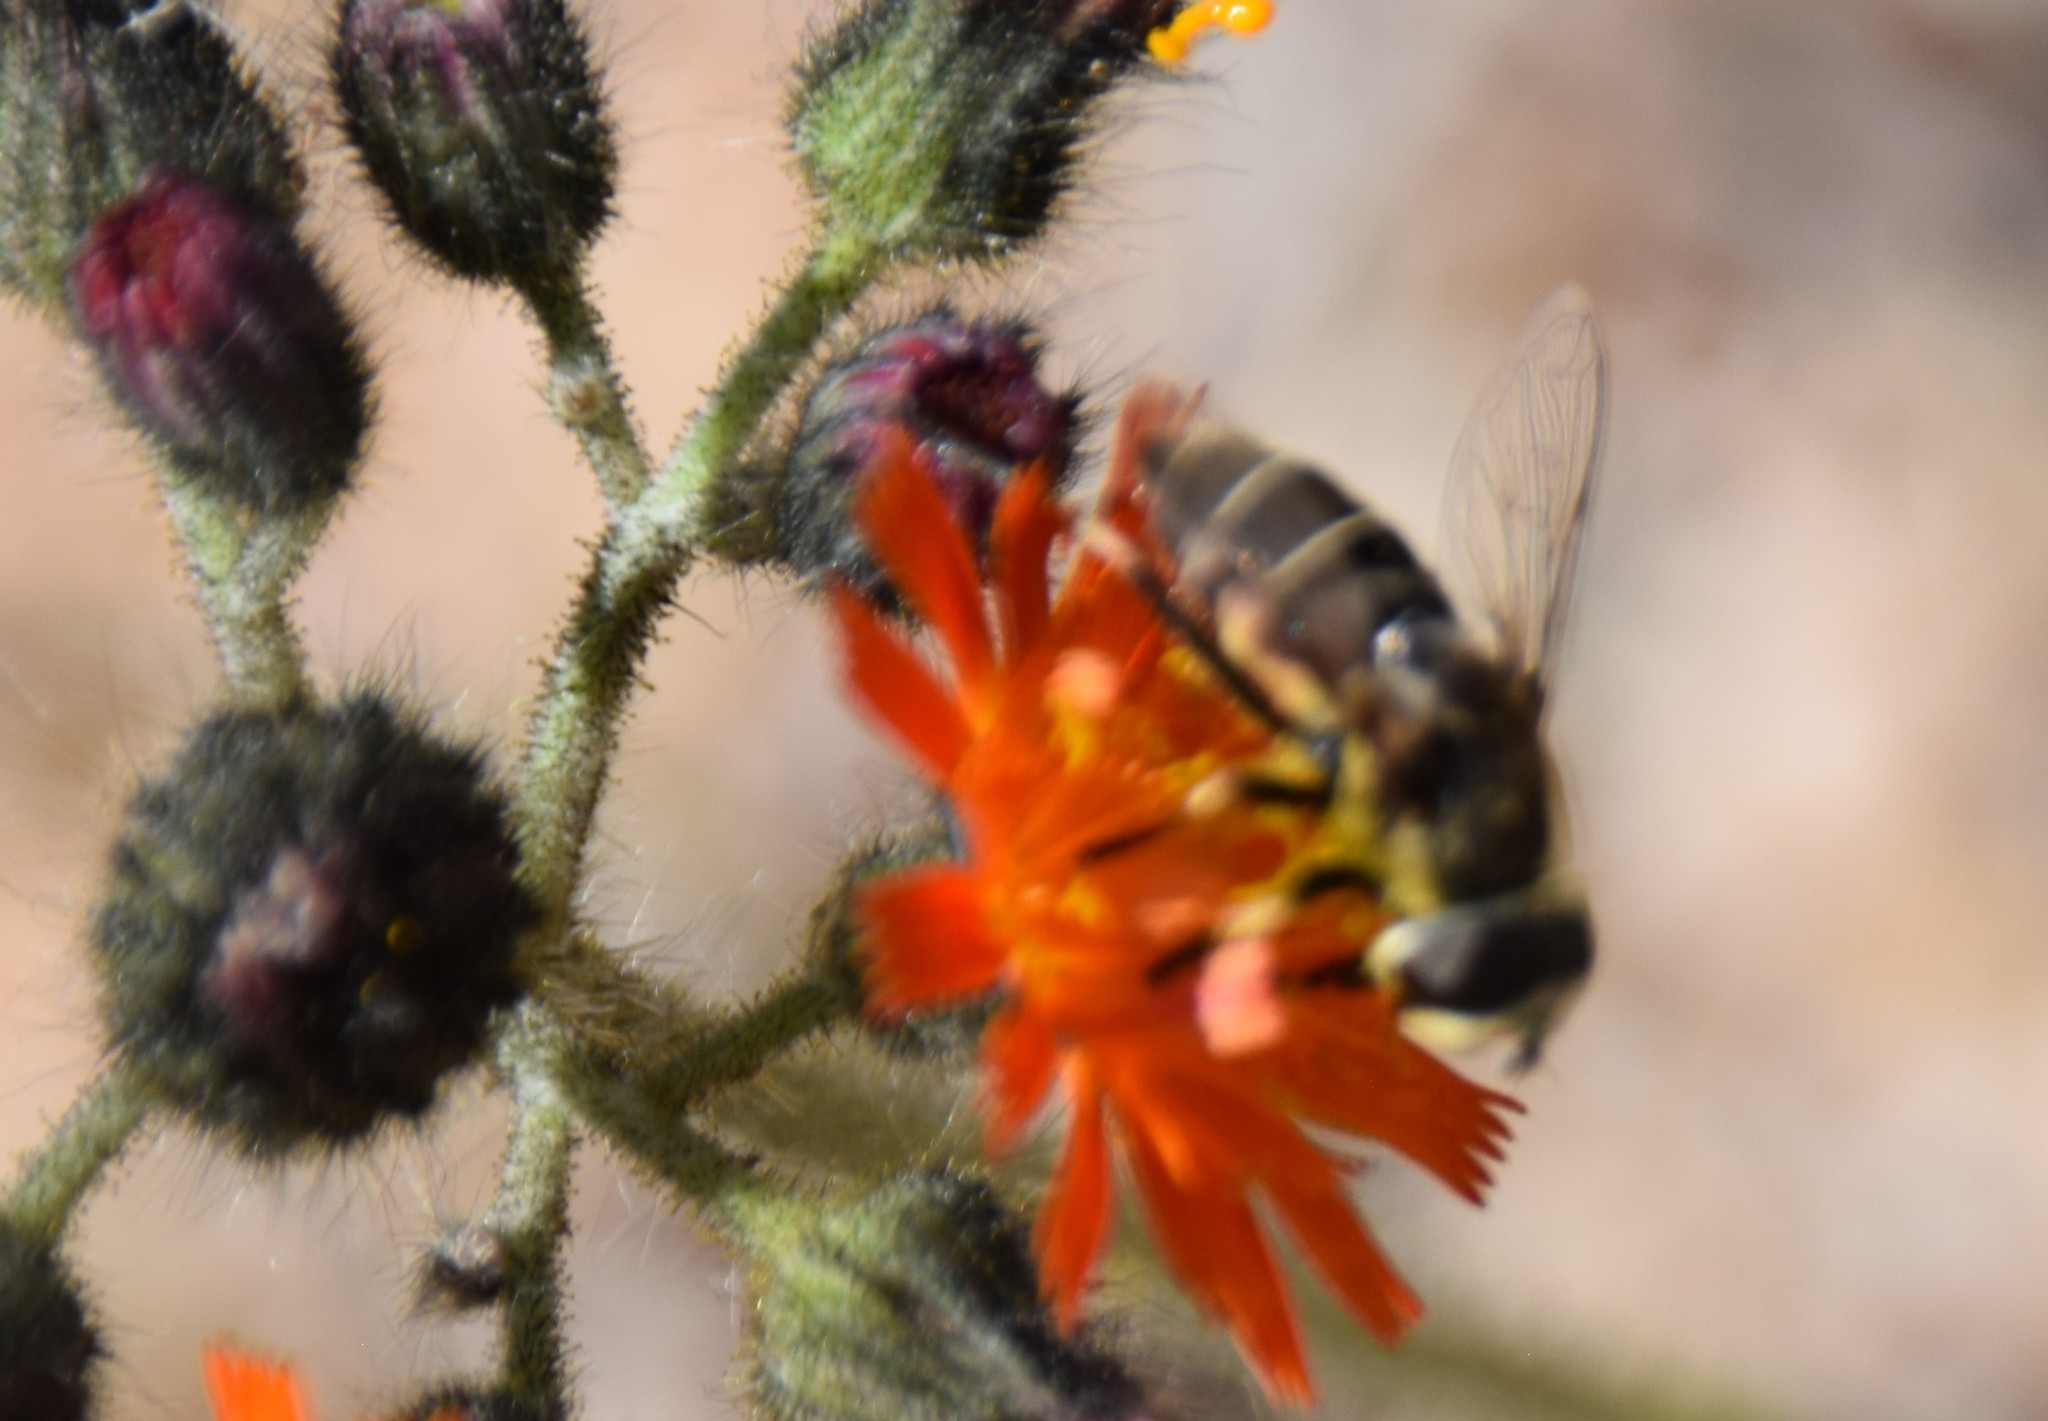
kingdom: Animalia
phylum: Arthropoda
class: Insecta
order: Diptera
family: Syrphidae
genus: Eoseristalis
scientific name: Eoseristalis
